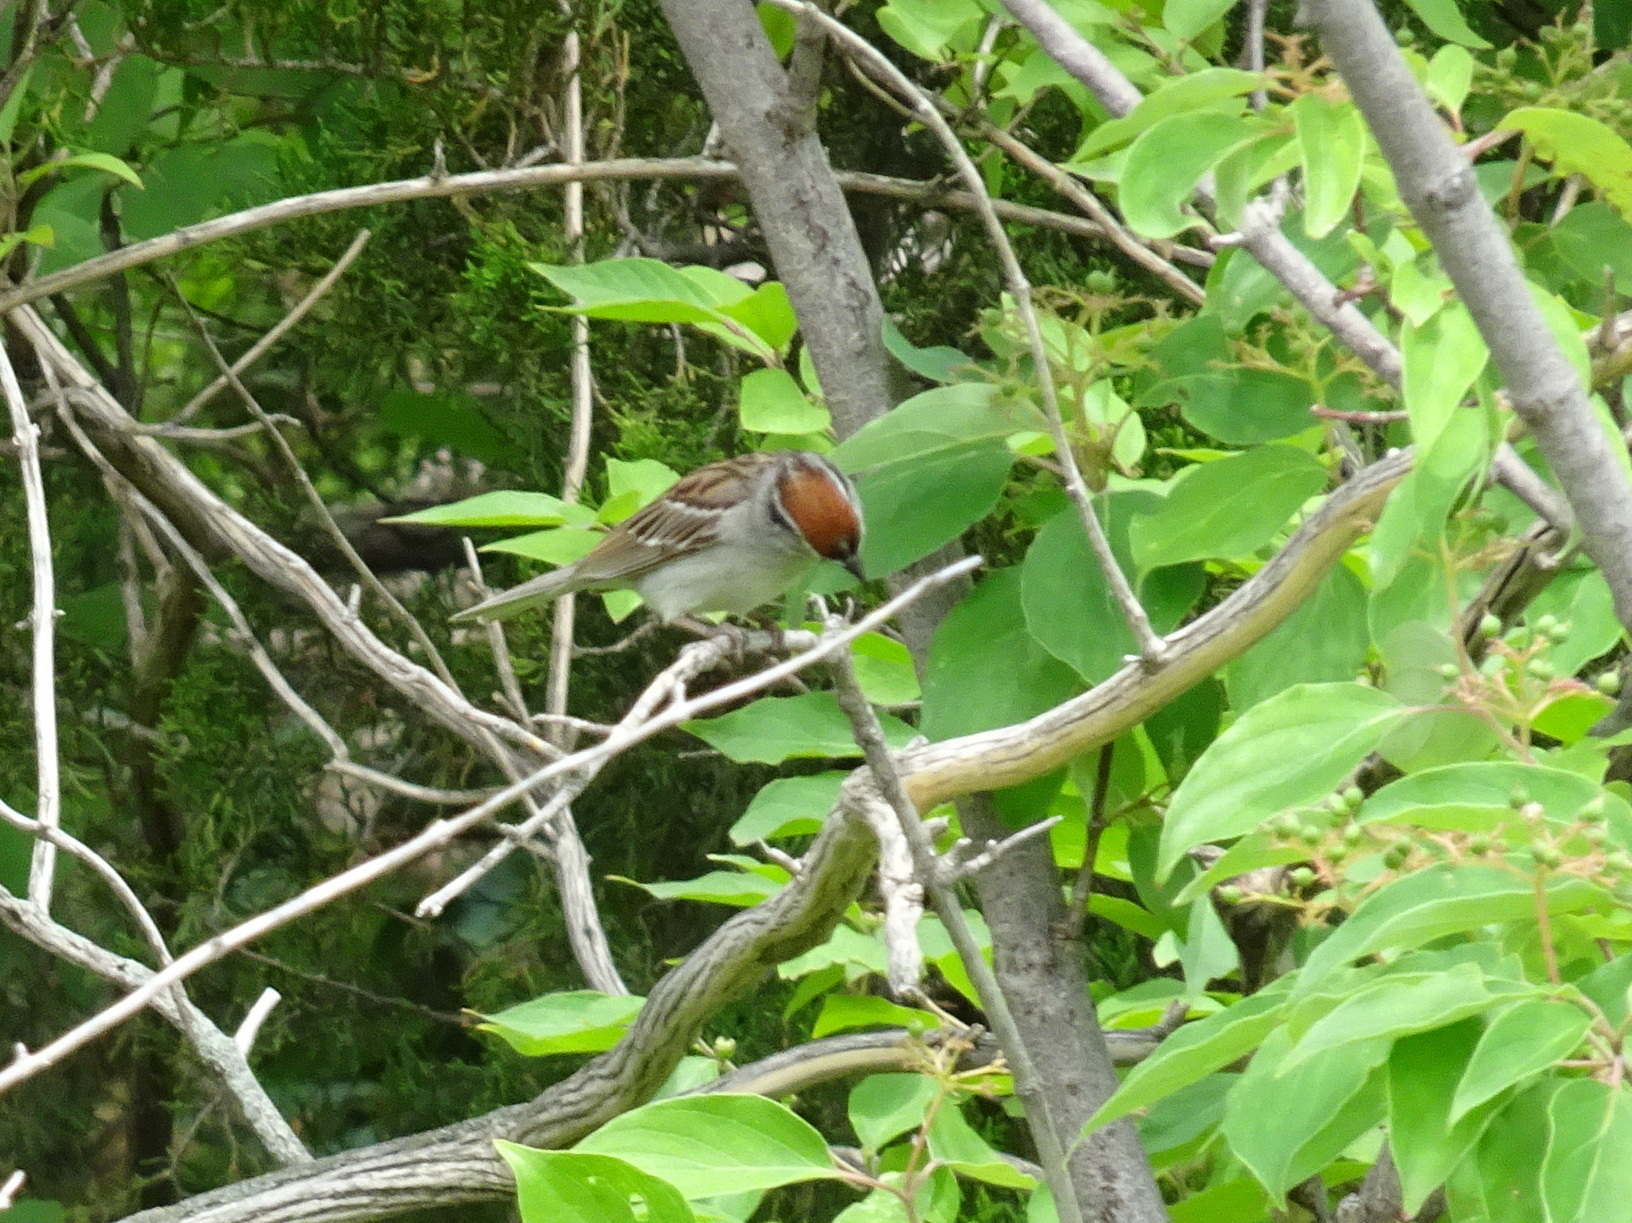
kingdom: Animalia
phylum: Chordata
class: Aves
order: Passeriformes
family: Passerellidae
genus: Spizella
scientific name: Spizella passerina
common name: Chipping sparrow
